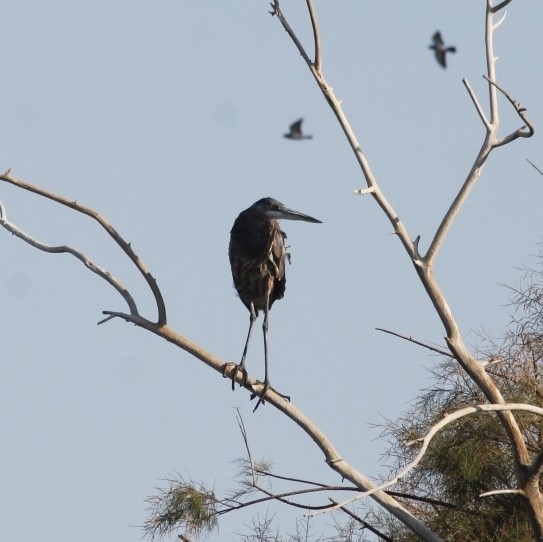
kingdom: Animalia
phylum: Chordata
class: Aves
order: Pelecaniformes
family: Ardeidae
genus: Ardea
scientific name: Ardea herodias
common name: Great blue heron
